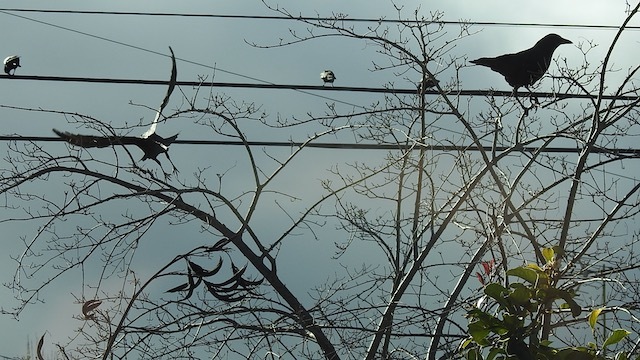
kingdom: Animalia
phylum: Chordata
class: Aves
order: Passeriformes
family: Corvidae
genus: Corvus
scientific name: Corvus brachyrhynchos
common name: American crow
